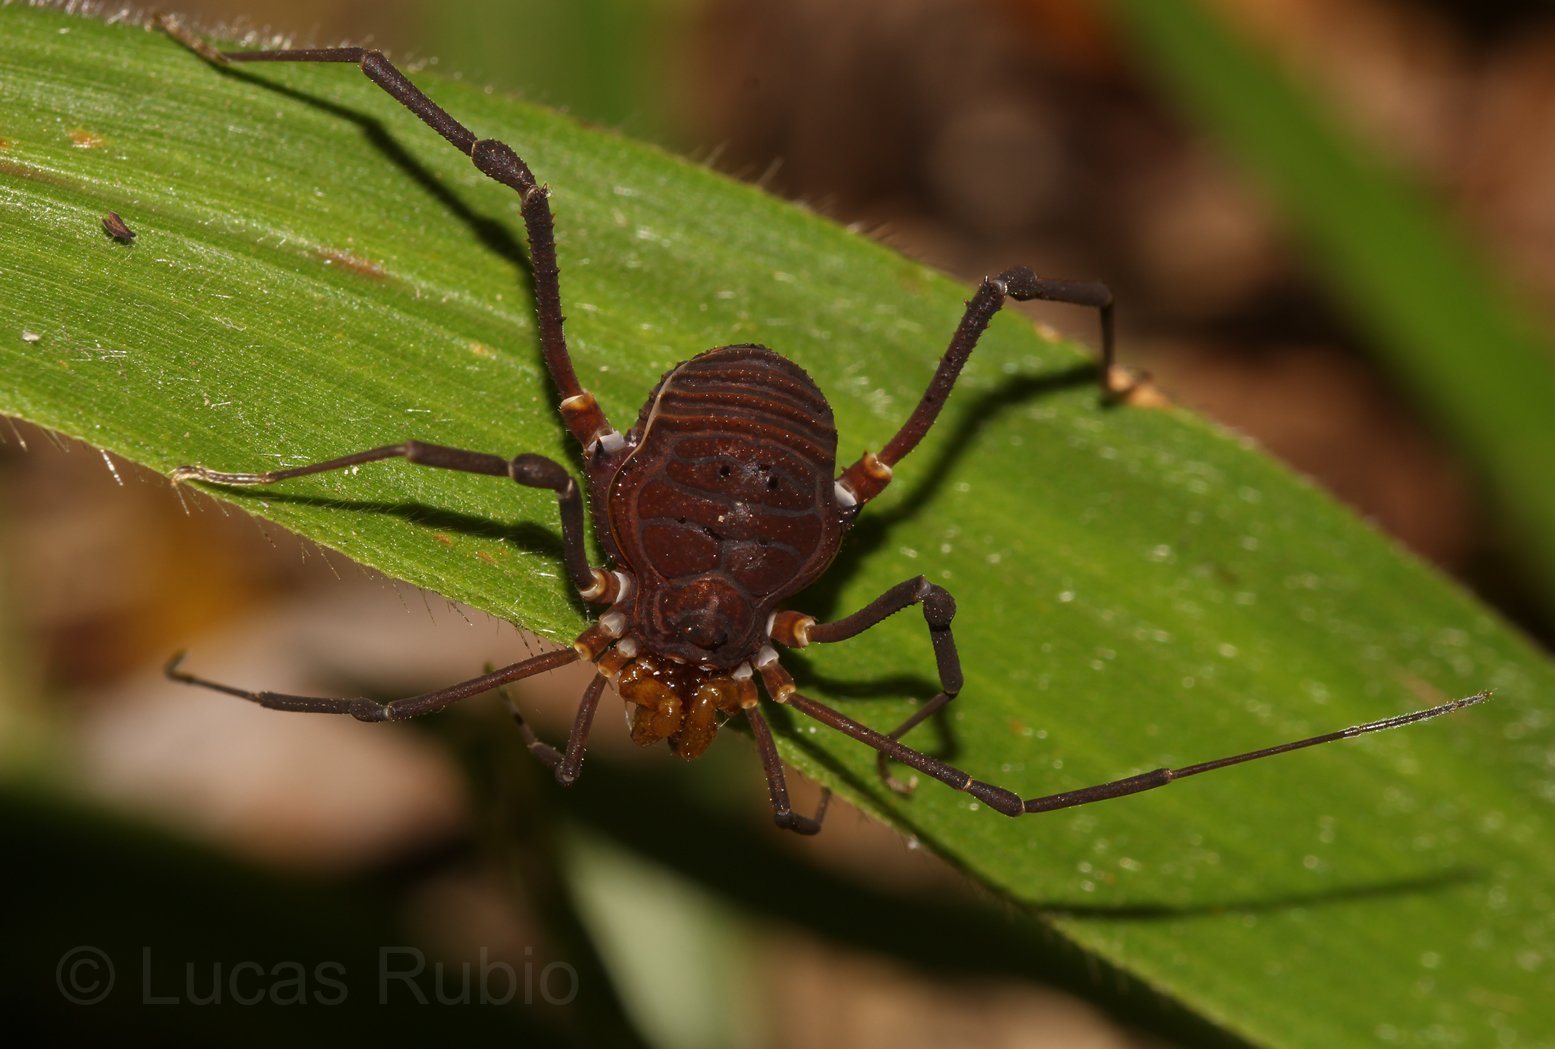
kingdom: Animalia
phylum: Arthropoda
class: Arachnida
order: Opiliones
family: Gonyleptidae
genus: Opisthoplatus
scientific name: Opisthoplatus vegetus
